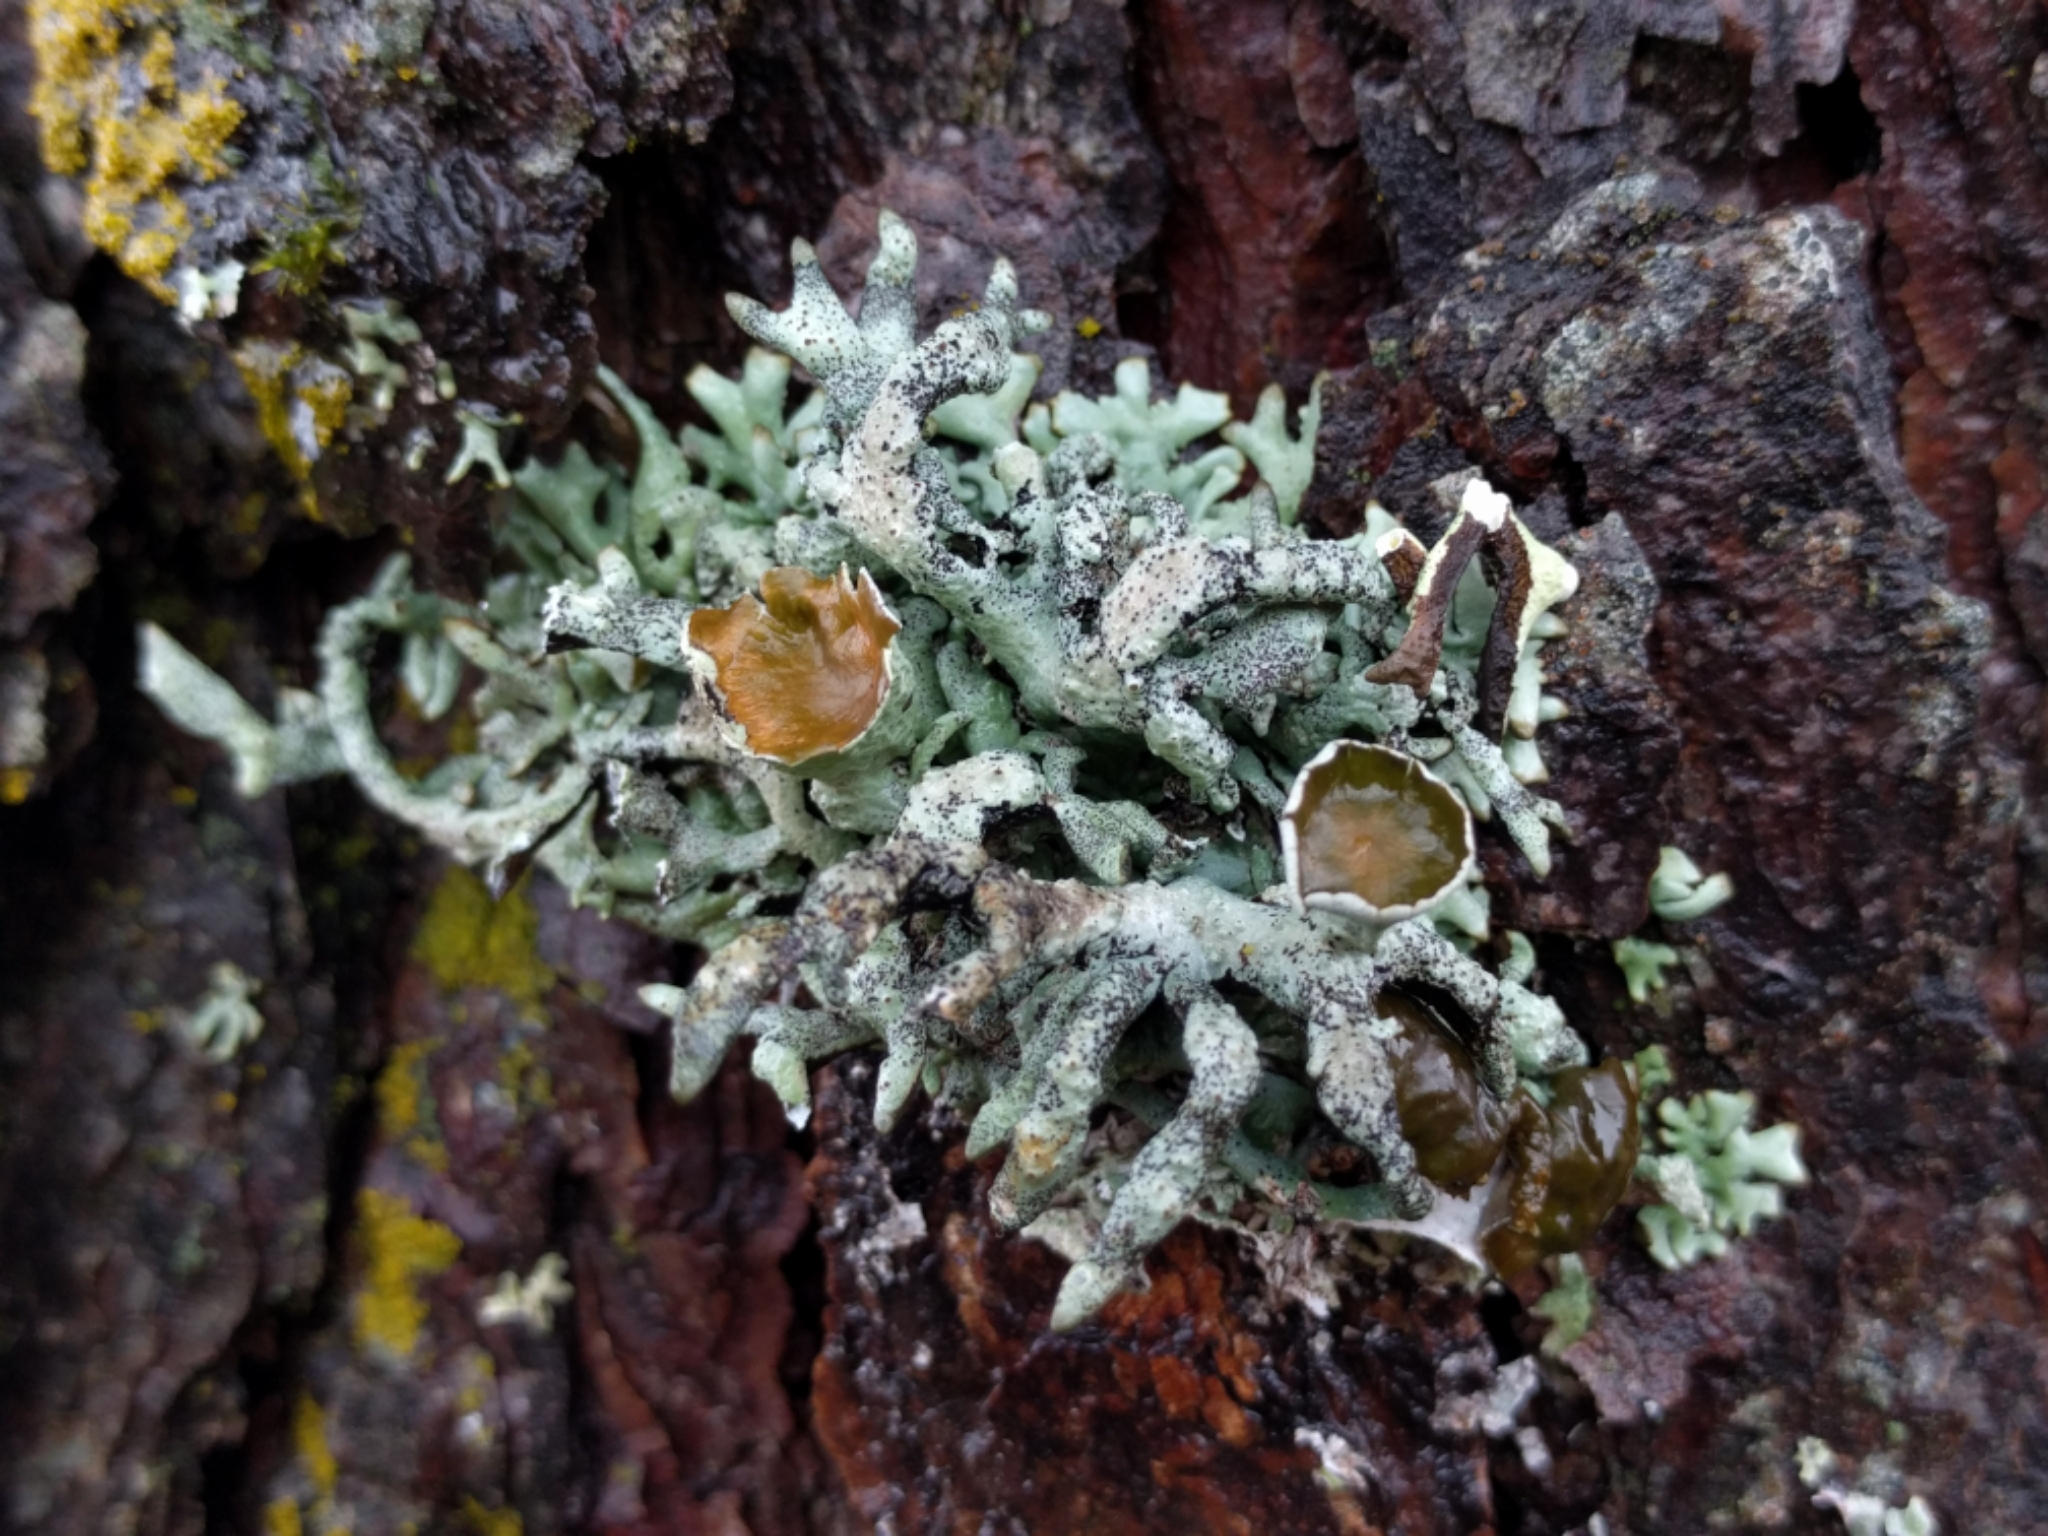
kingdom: Fungi
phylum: Ascomycota
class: Lecanoromycetes
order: Lecanorales
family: Parmeliaceae
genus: Hypogymnia
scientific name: Hypogymnia imshaugii
